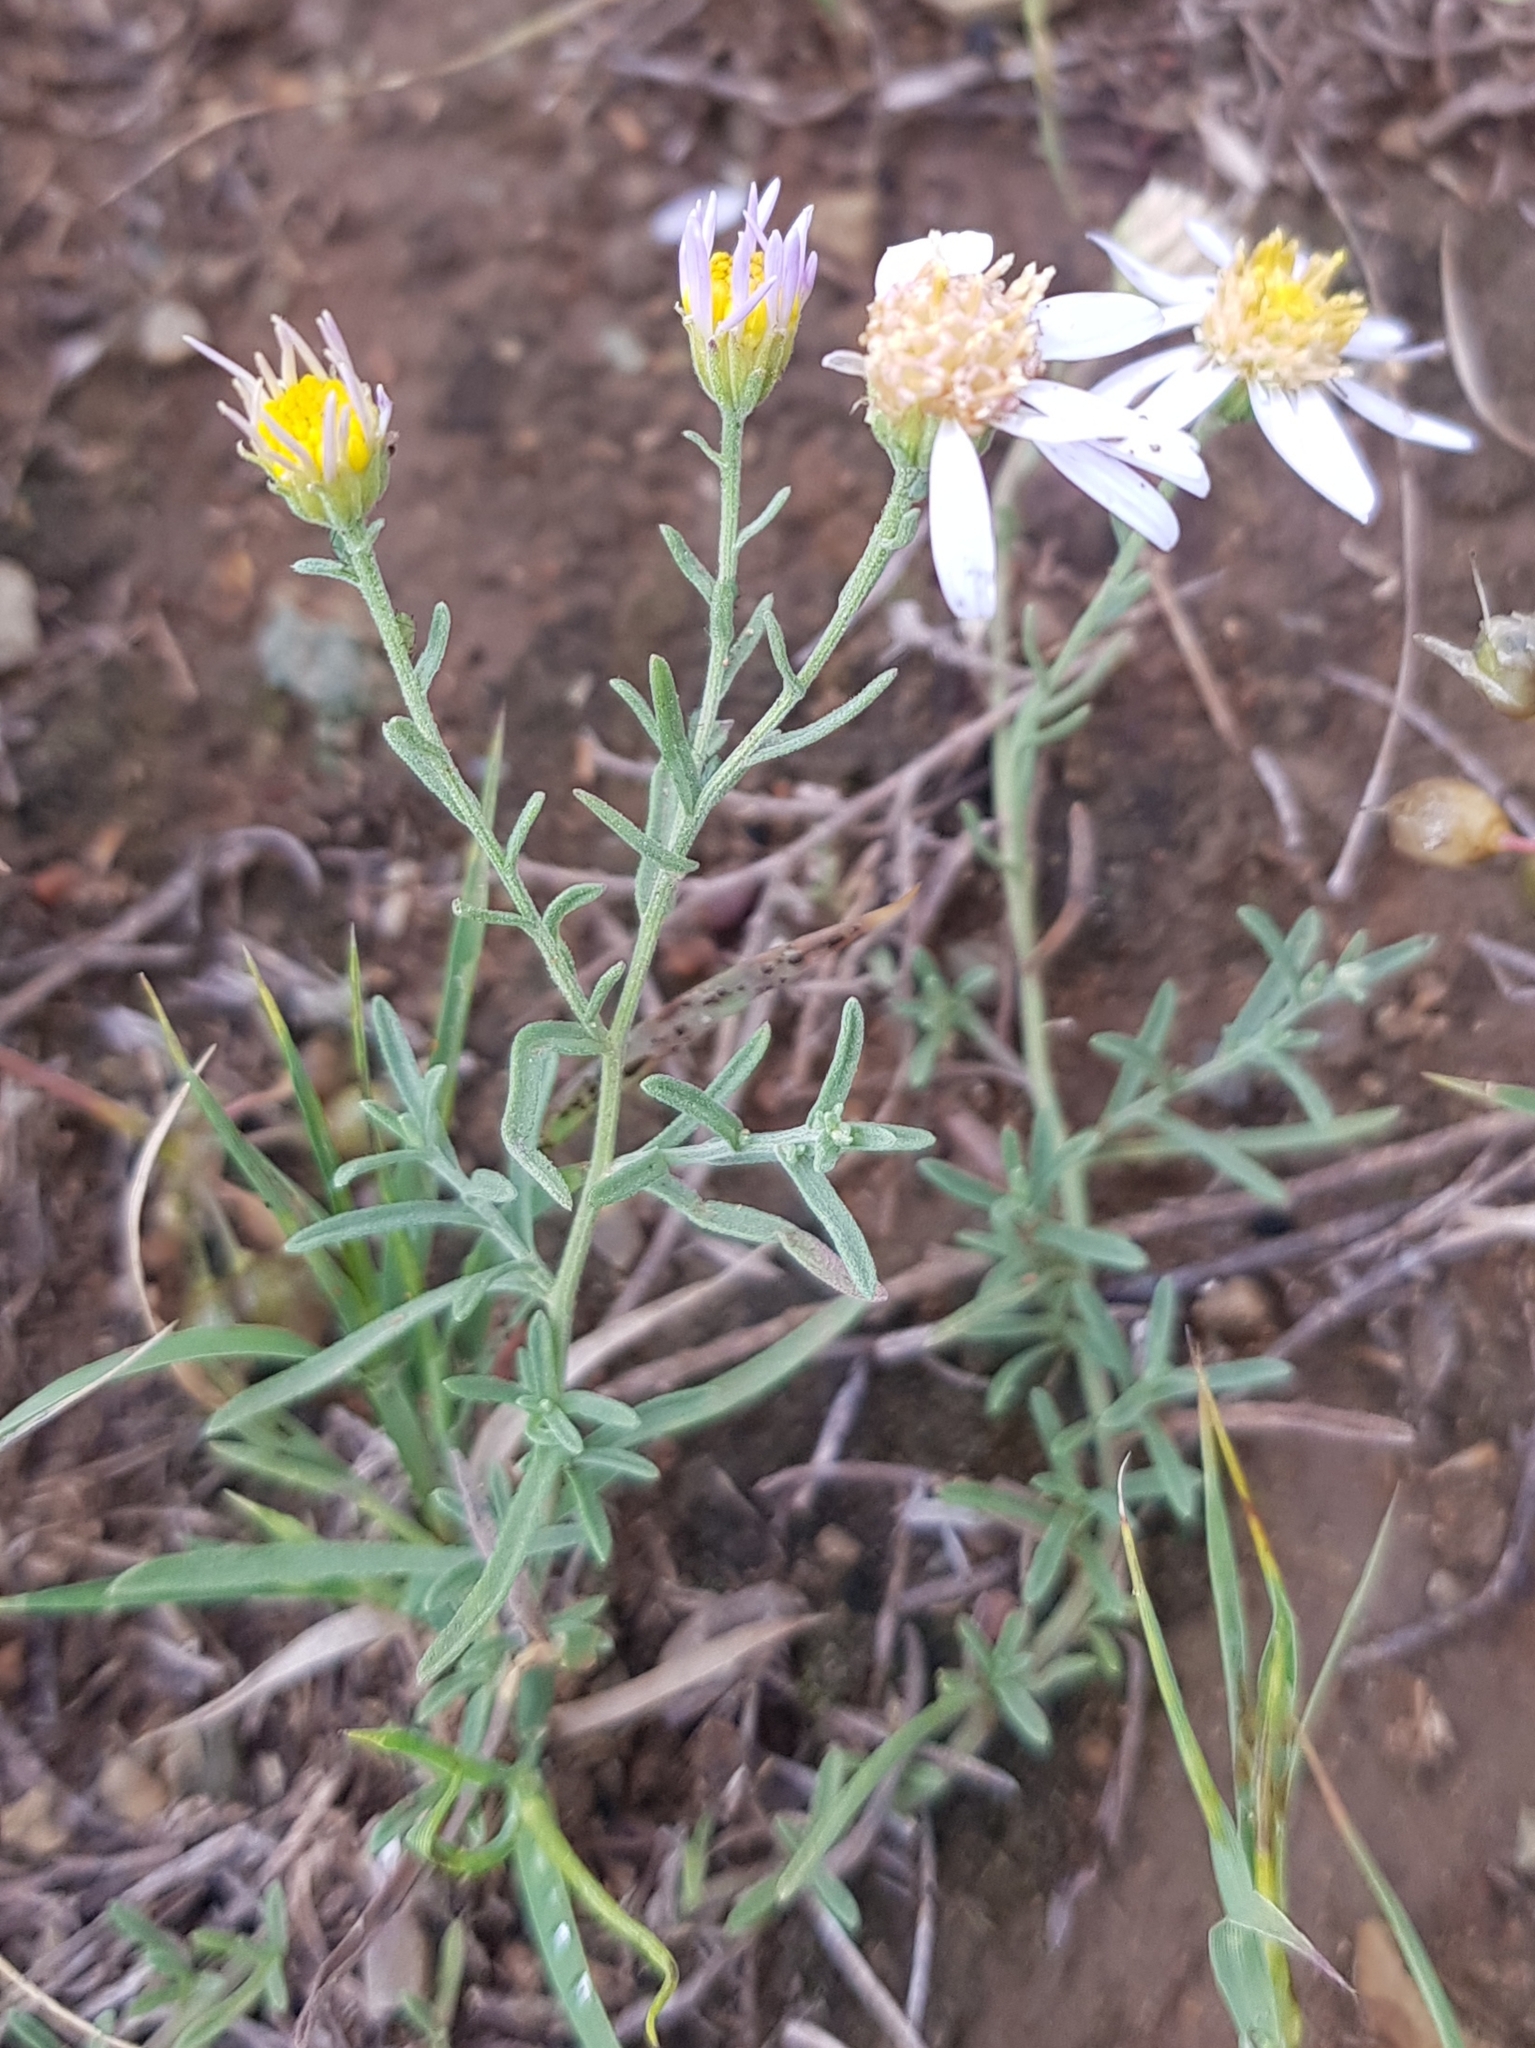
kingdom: Plantae
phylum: Tracheophyta
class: Magnoliopsida
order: Asterales
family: Asteraceae
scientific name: Asteraceae
